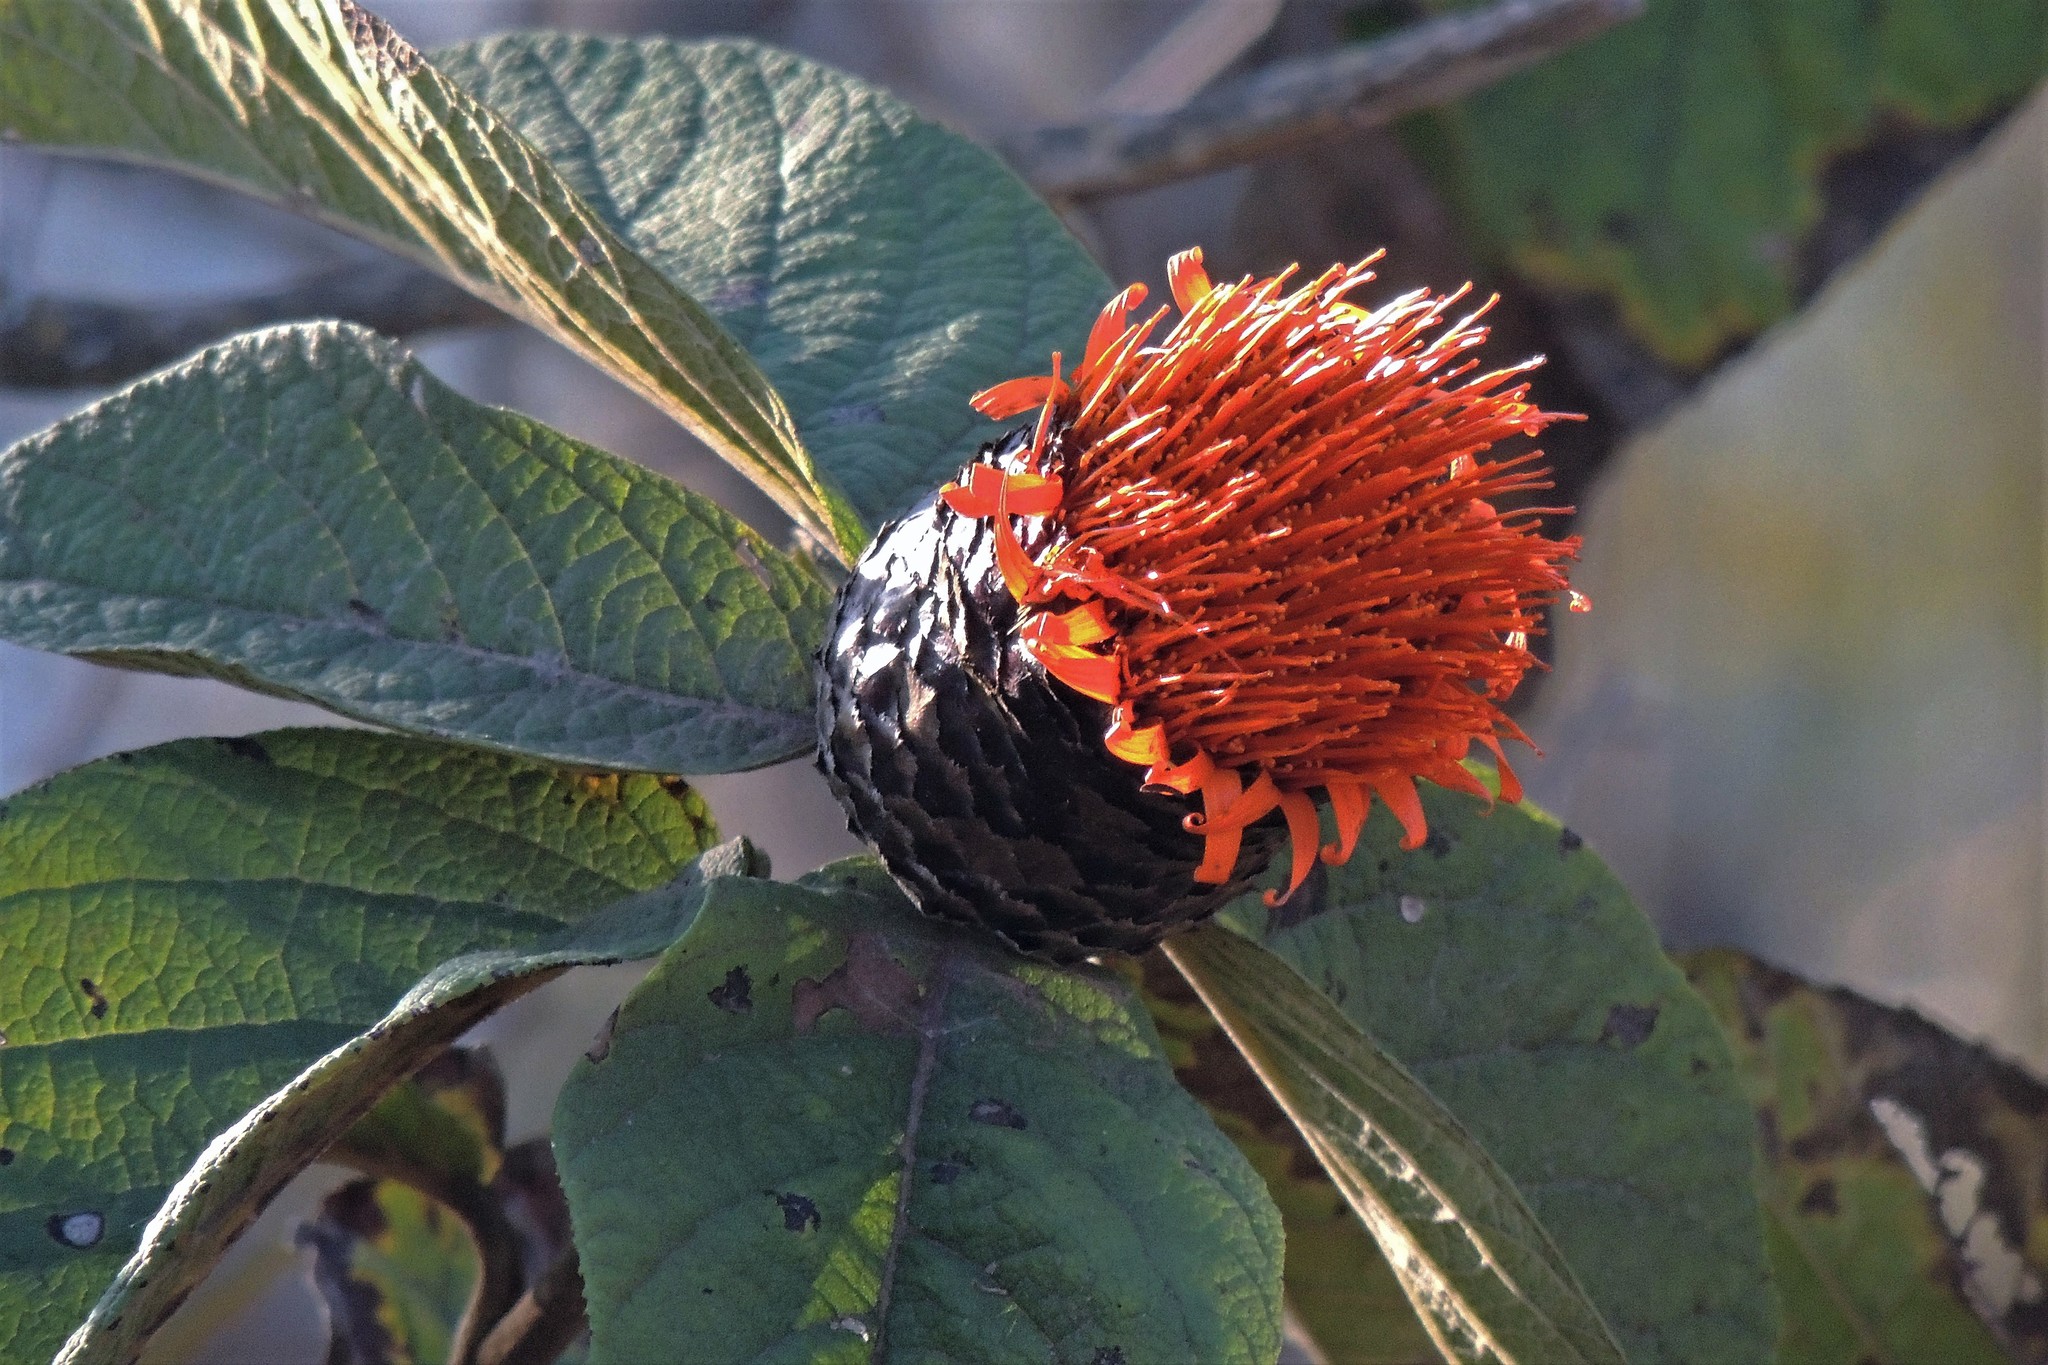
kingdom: Plantae
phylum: Tracheophyta
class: Magnoliopsida
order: Asterales
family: Asteraceae
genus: Cnicothamnus
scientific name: Cnicothamnus lorentzii
